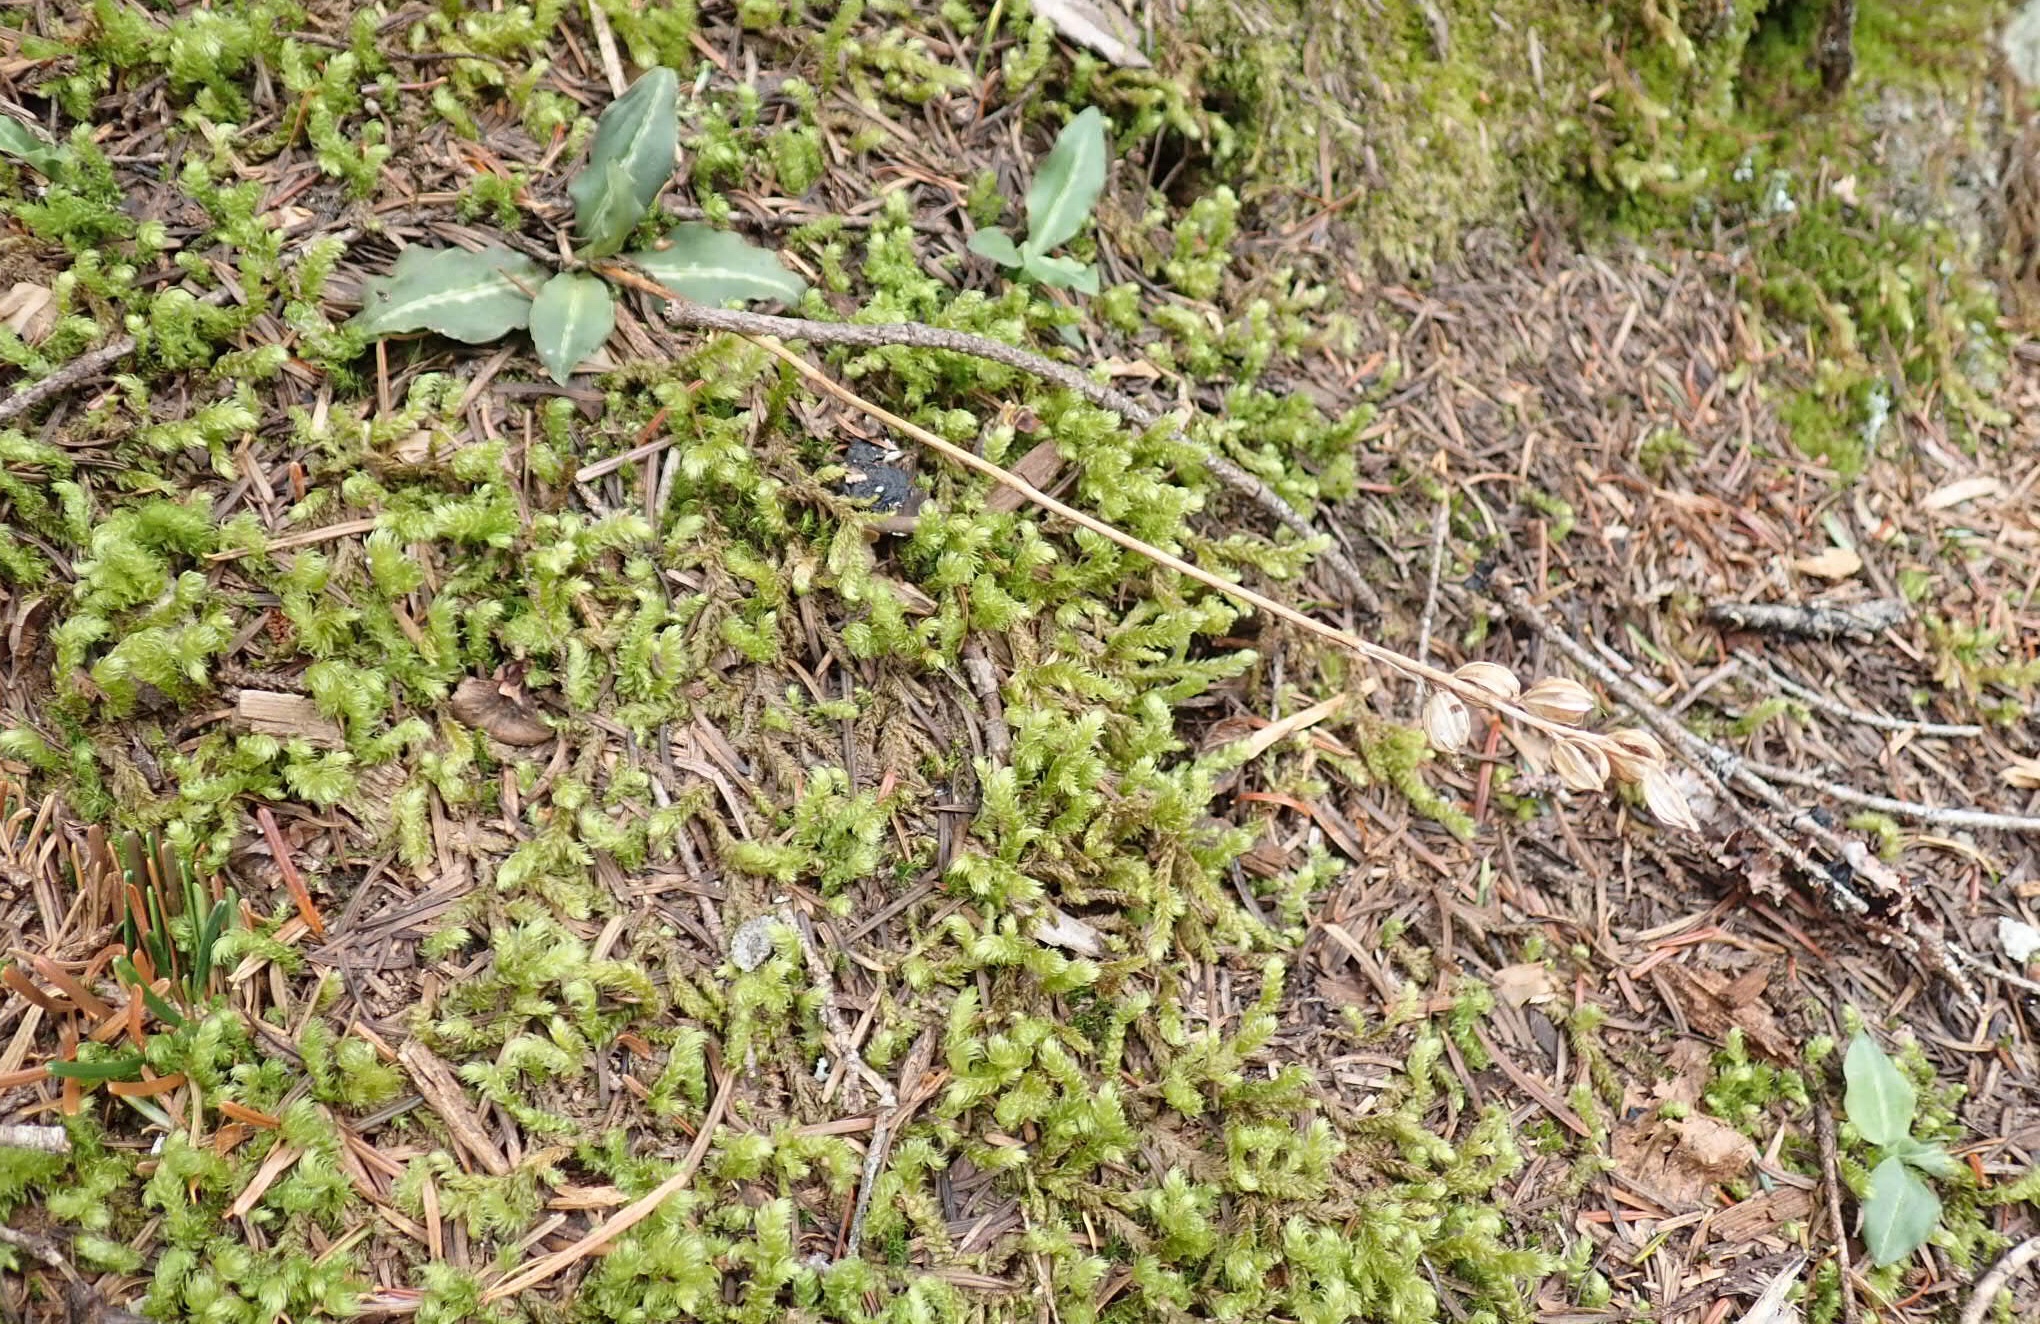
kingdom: Plantae
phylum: Tracheophyta
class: Liliopsida
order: Asparagales
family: Orchidaceae
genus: Goodyera
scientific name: Goodyera oblongifolia
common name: Giant rattlesnake-plantain
